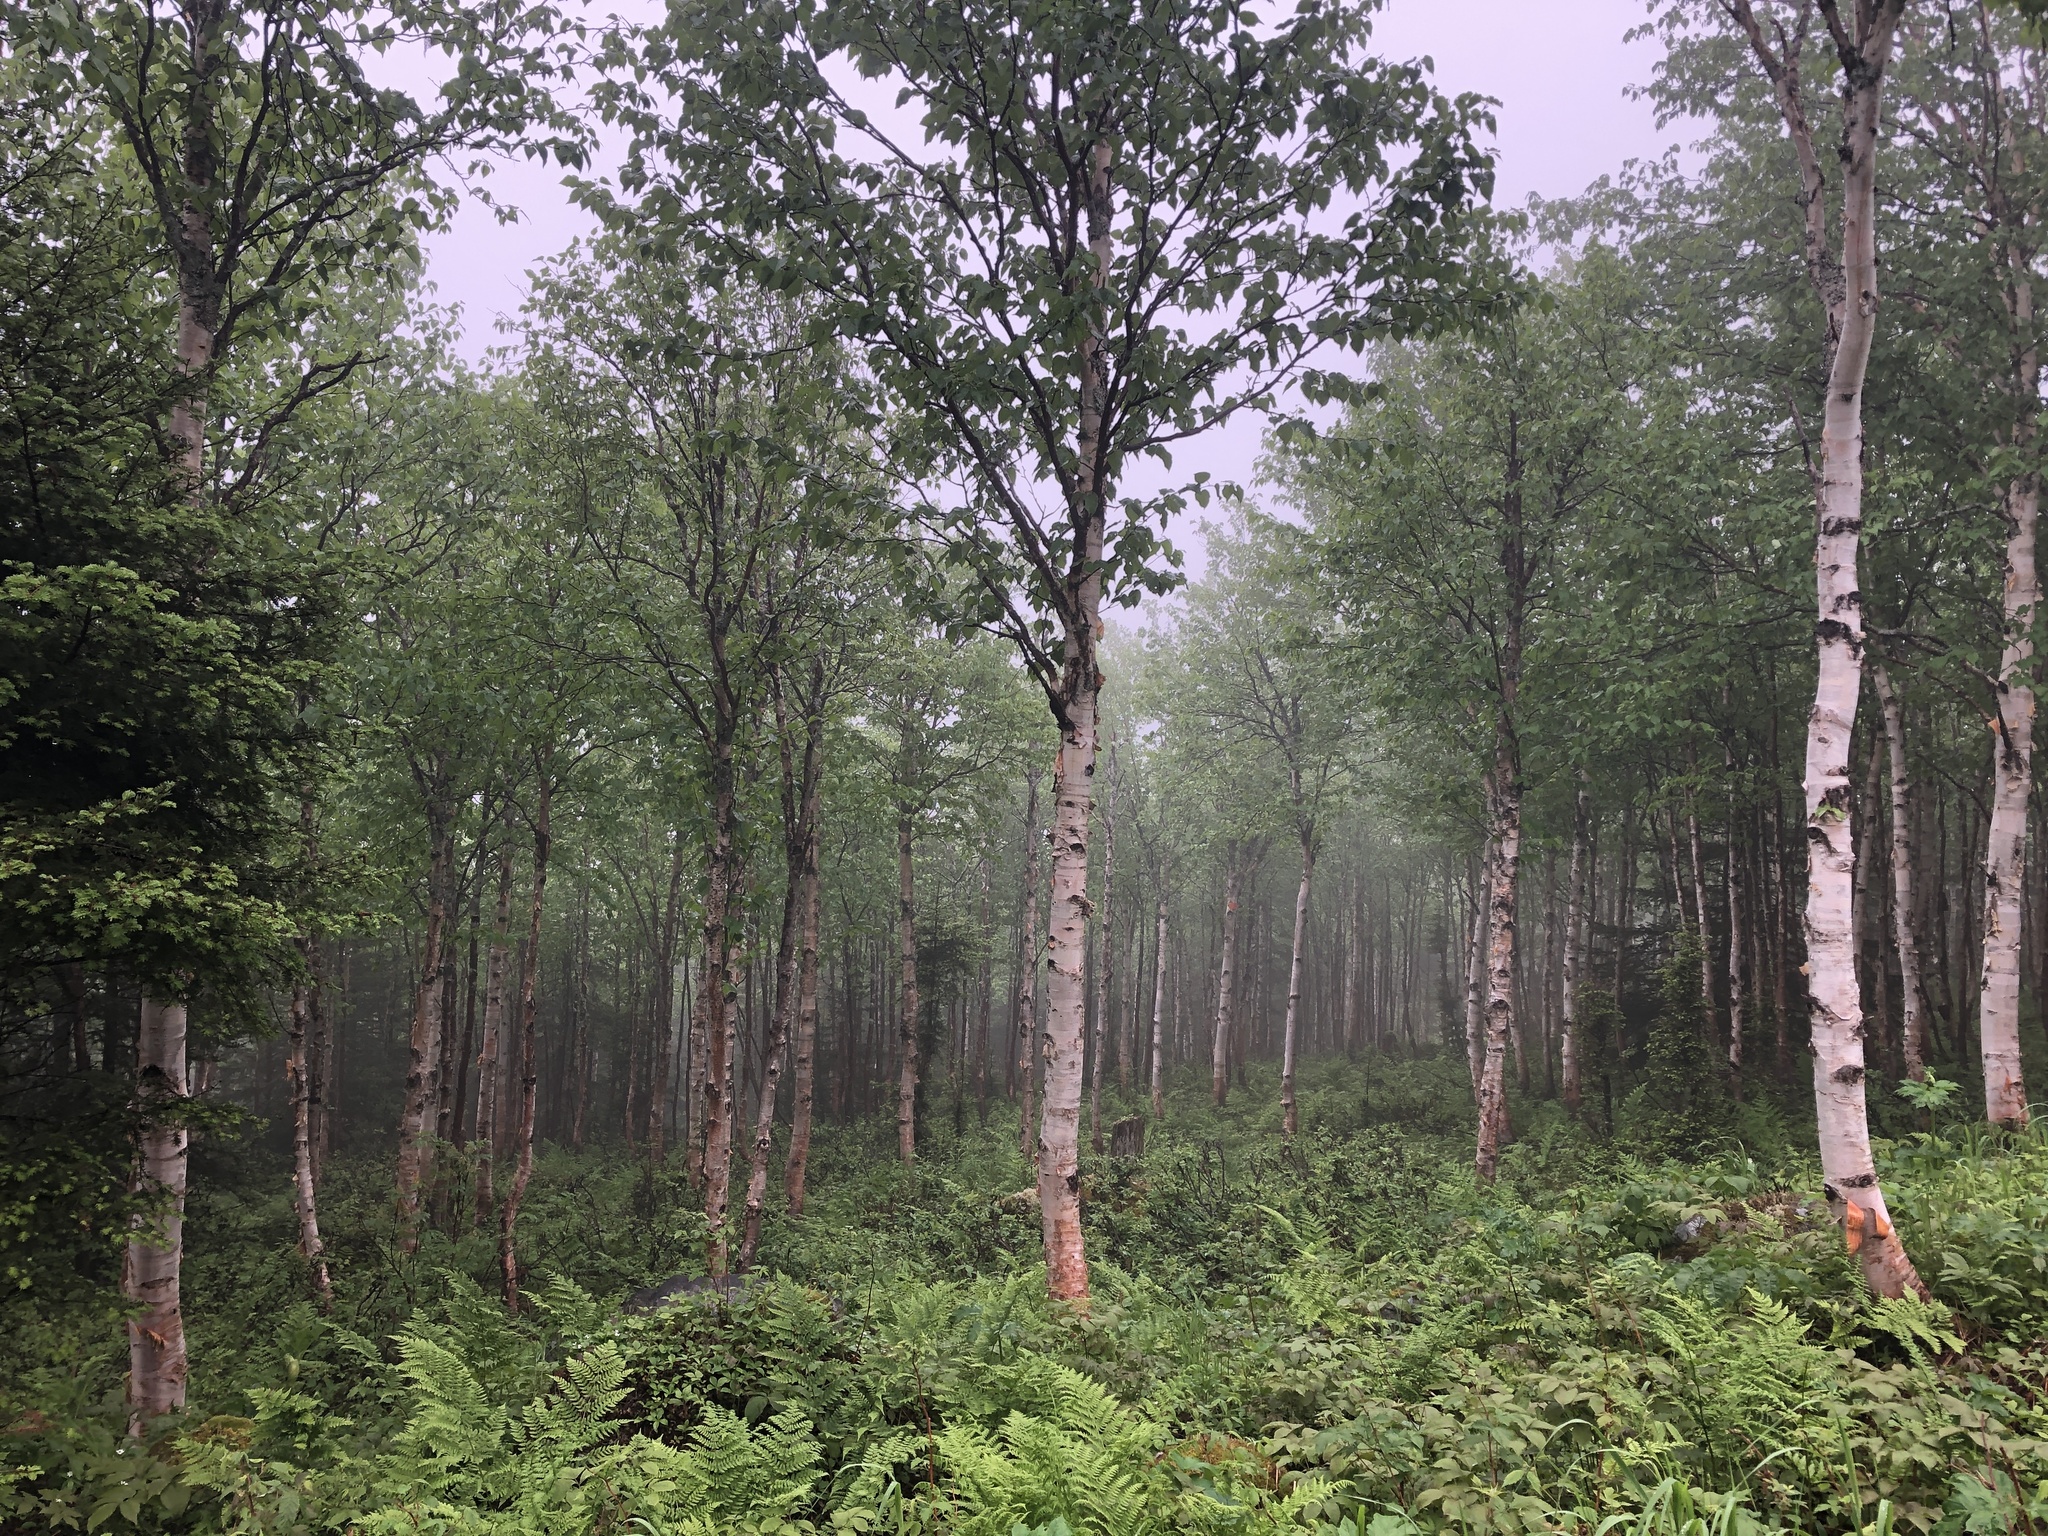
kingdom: Animalia
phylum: Chordata
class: Mammalia
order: Artiodactyla
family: Cervidae
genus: Alces
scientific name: Alces alces
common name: Moose
